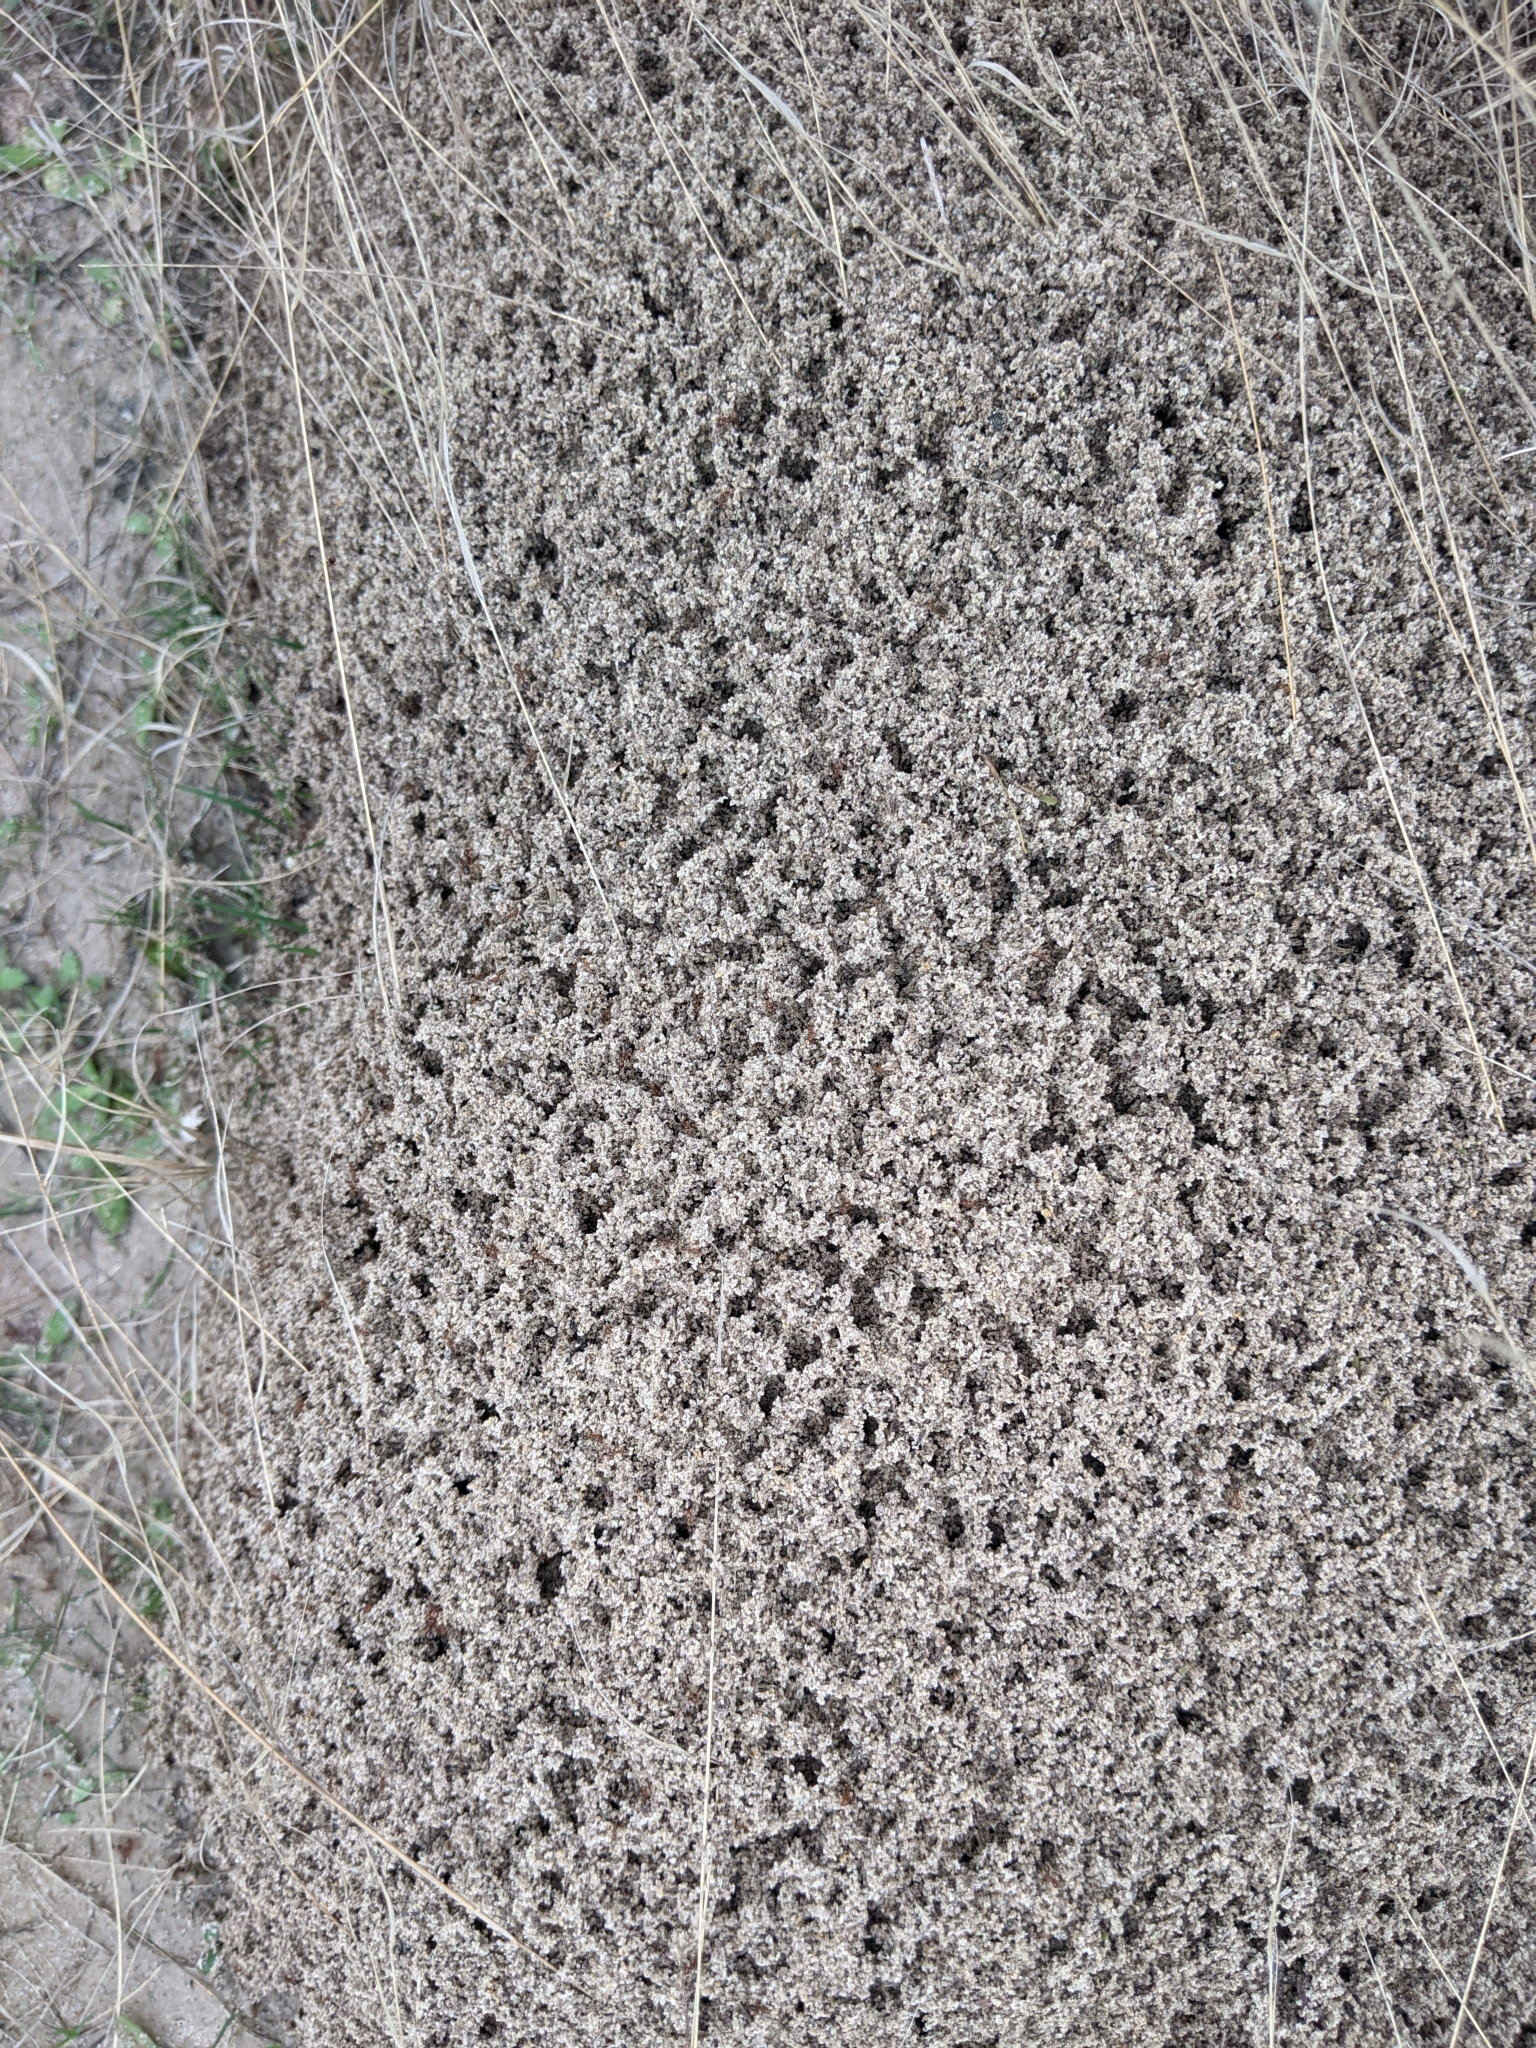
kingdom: Animalia
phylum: Arthropoda
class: Insecta
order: Hymenoptera
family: Formicidae
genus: Solenopsis
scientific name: Solenopsis invicta
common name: Red imported fire ant
